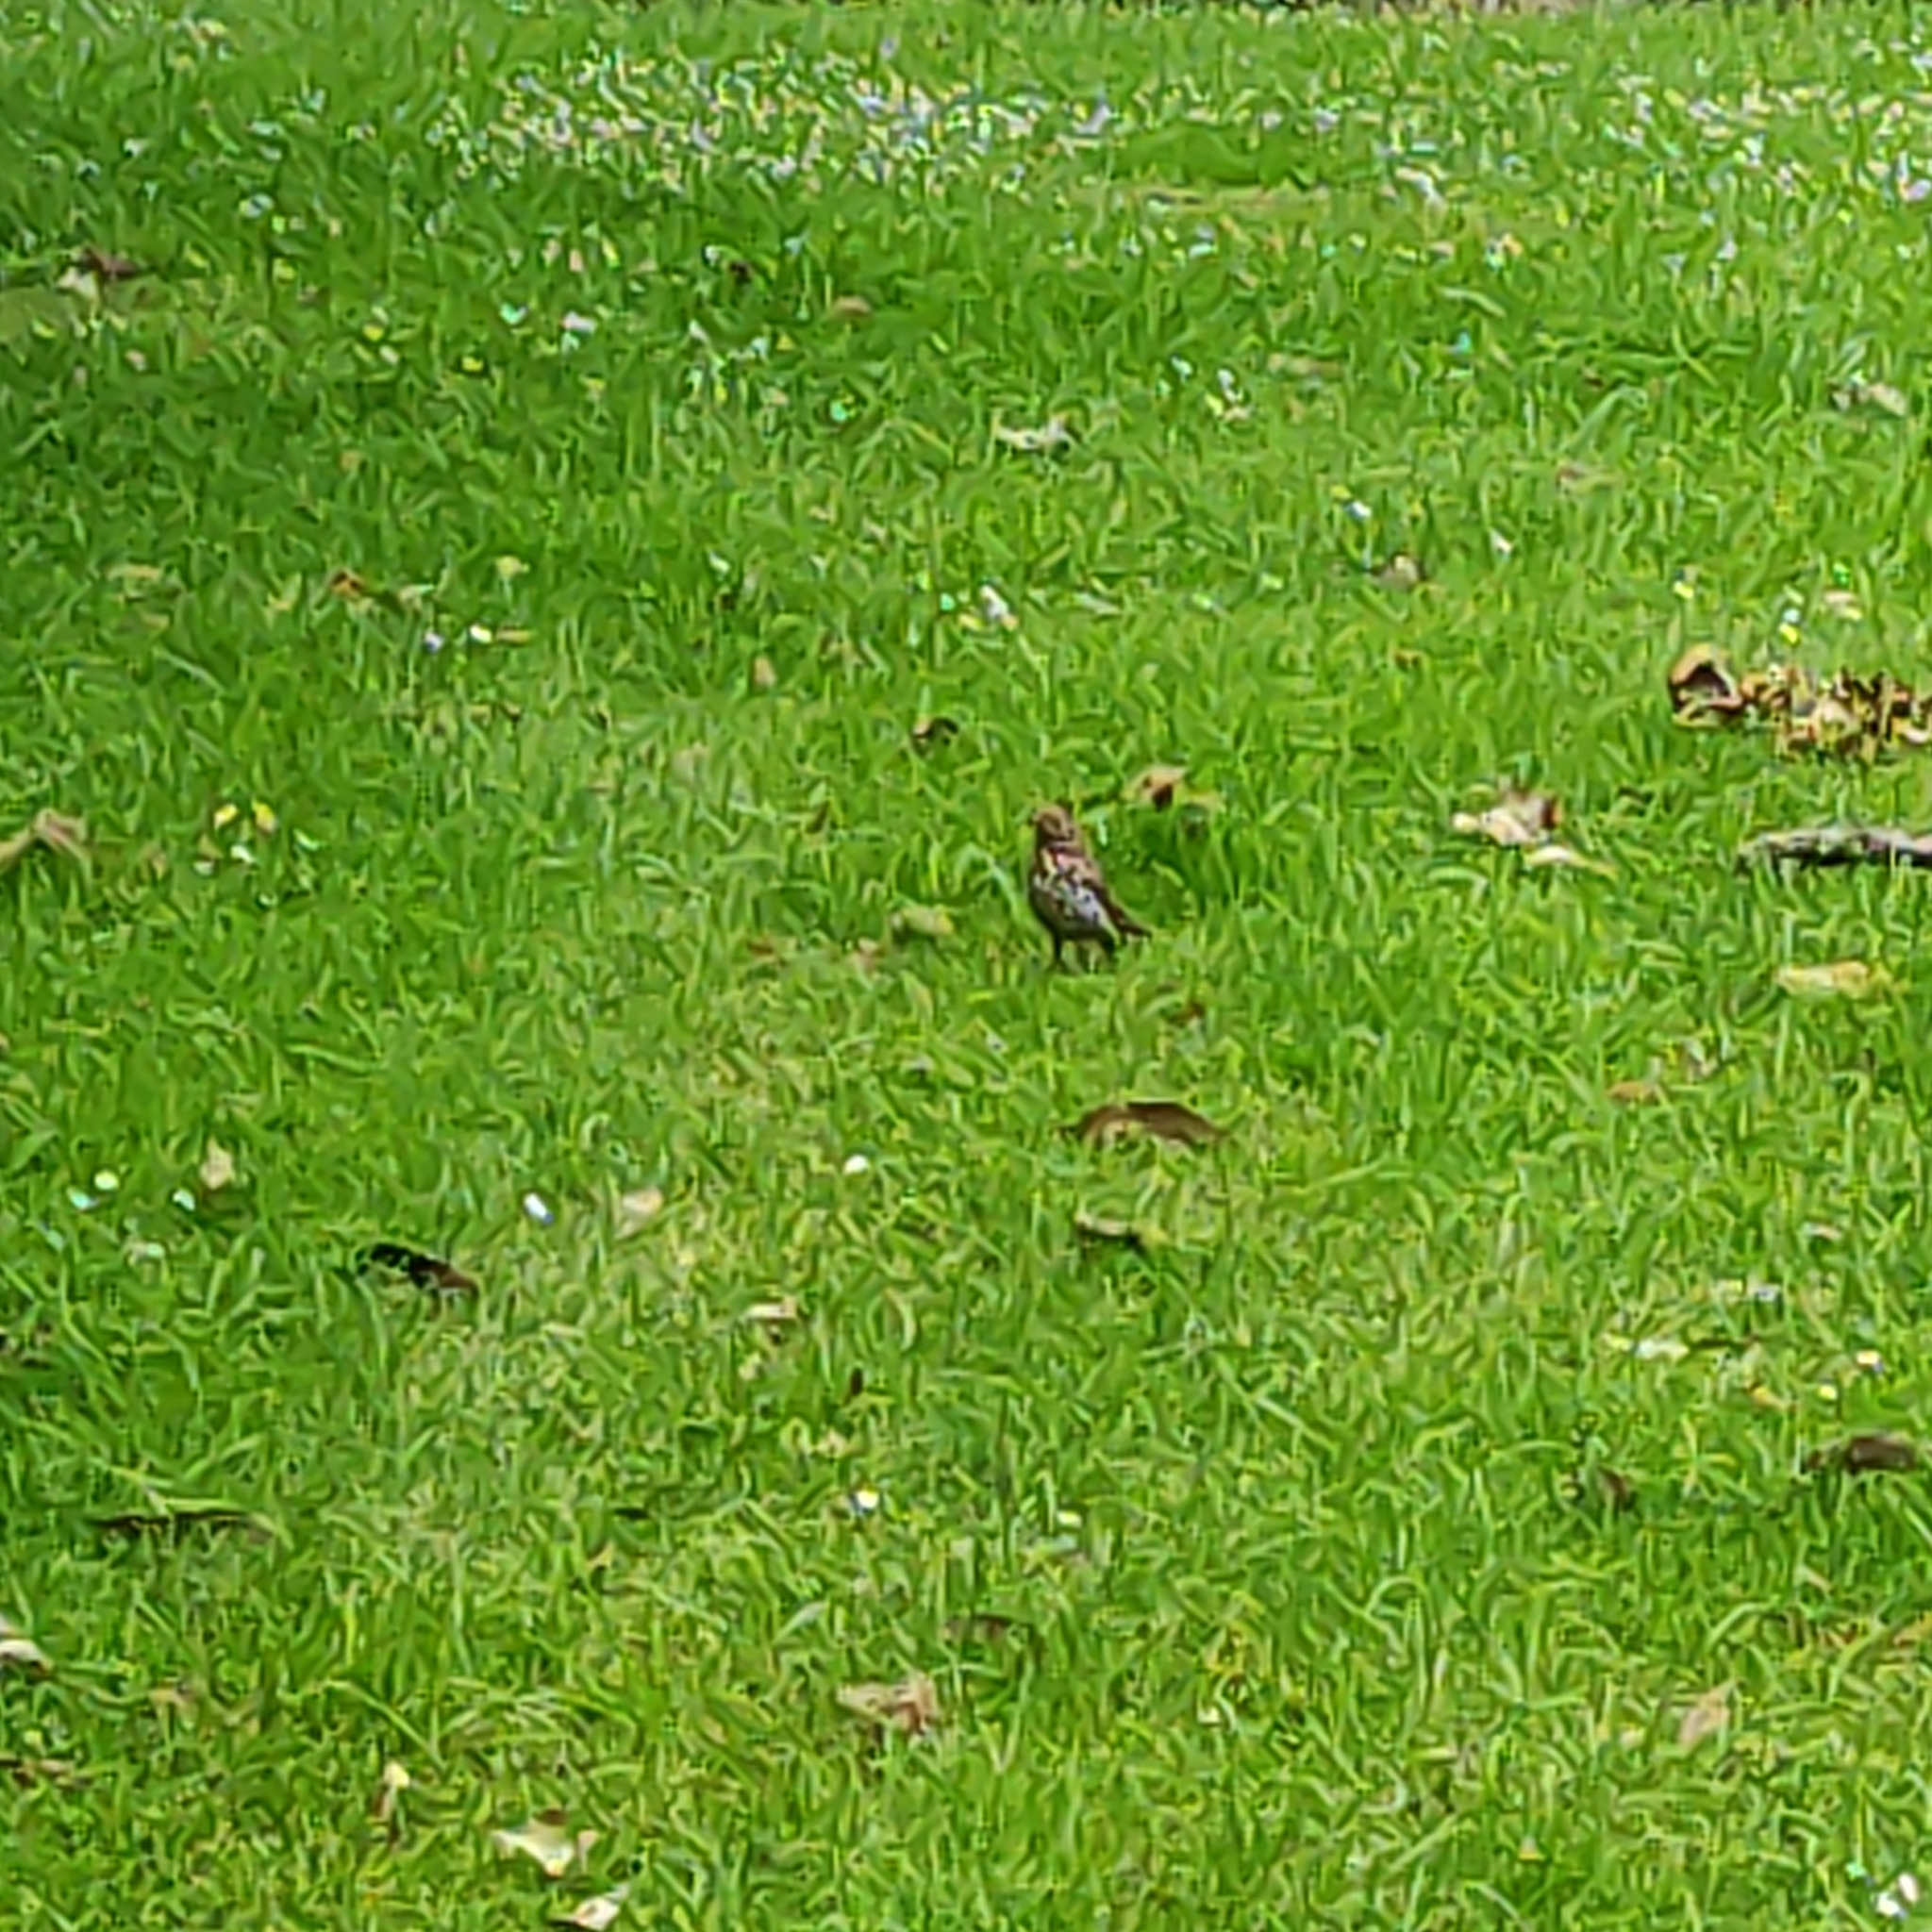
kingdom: Animalia
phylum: Chordata
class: Aves
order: Passeriformes
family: Turdidae
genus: Turdus
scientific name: Turdus philomelos
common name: Song thrush
